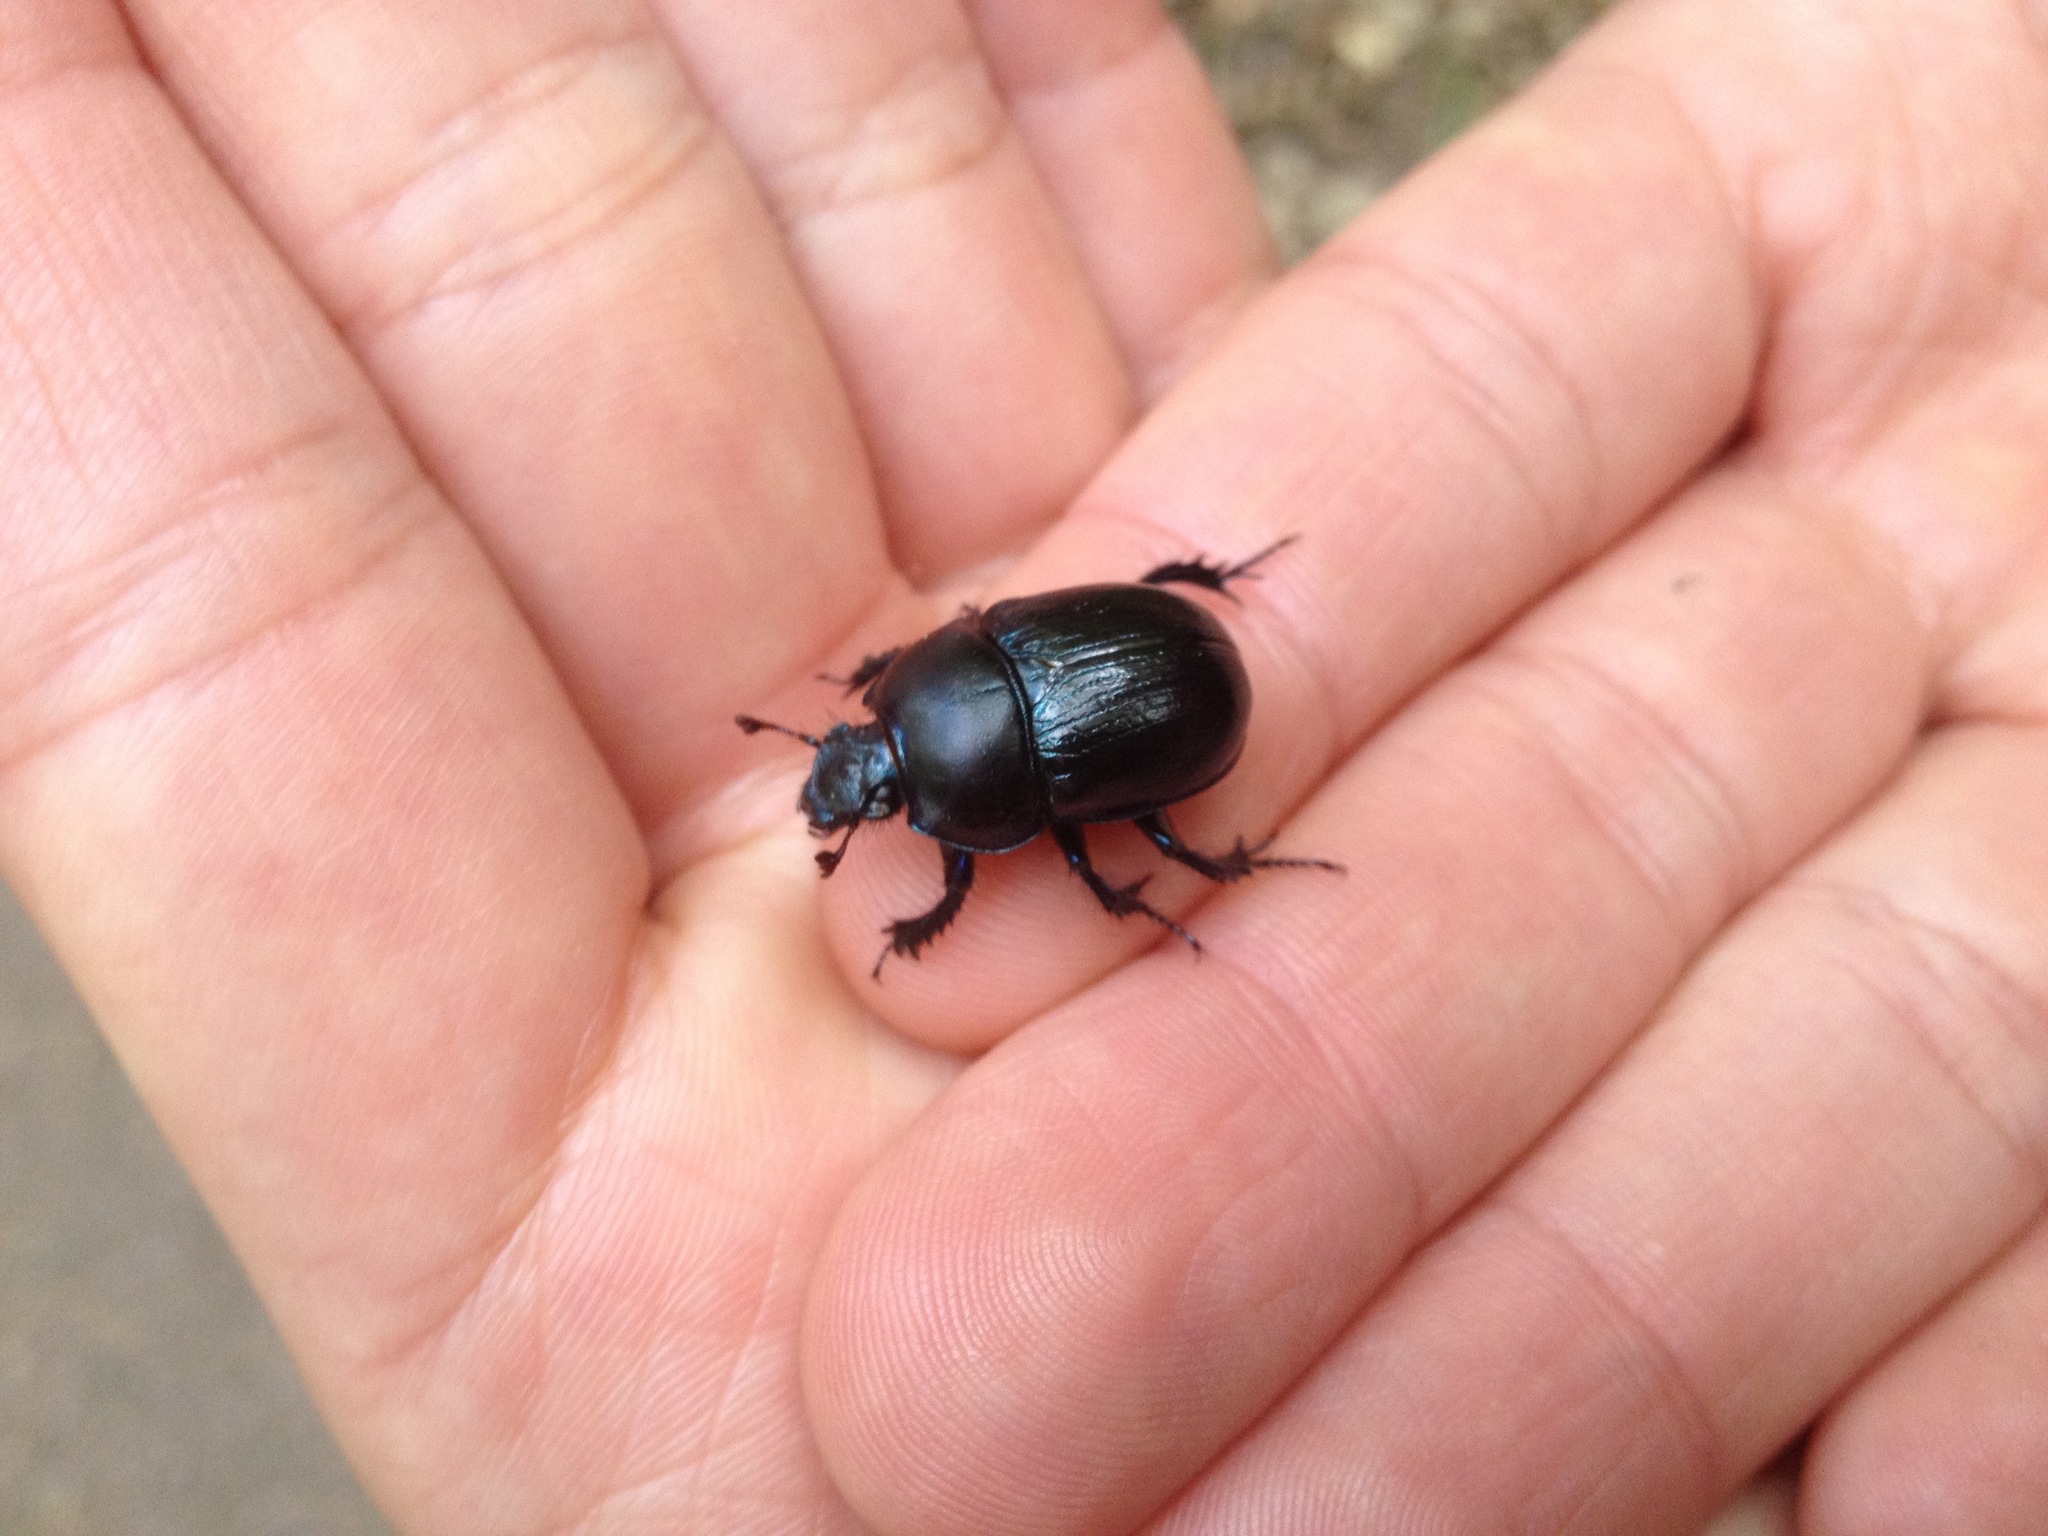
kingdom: Animalia
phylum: Arthropoda
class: Insecta
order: Coleoptera
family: Geotrupidae
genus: Anoplotrupes
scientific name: Anoplotrupes stercorosus
